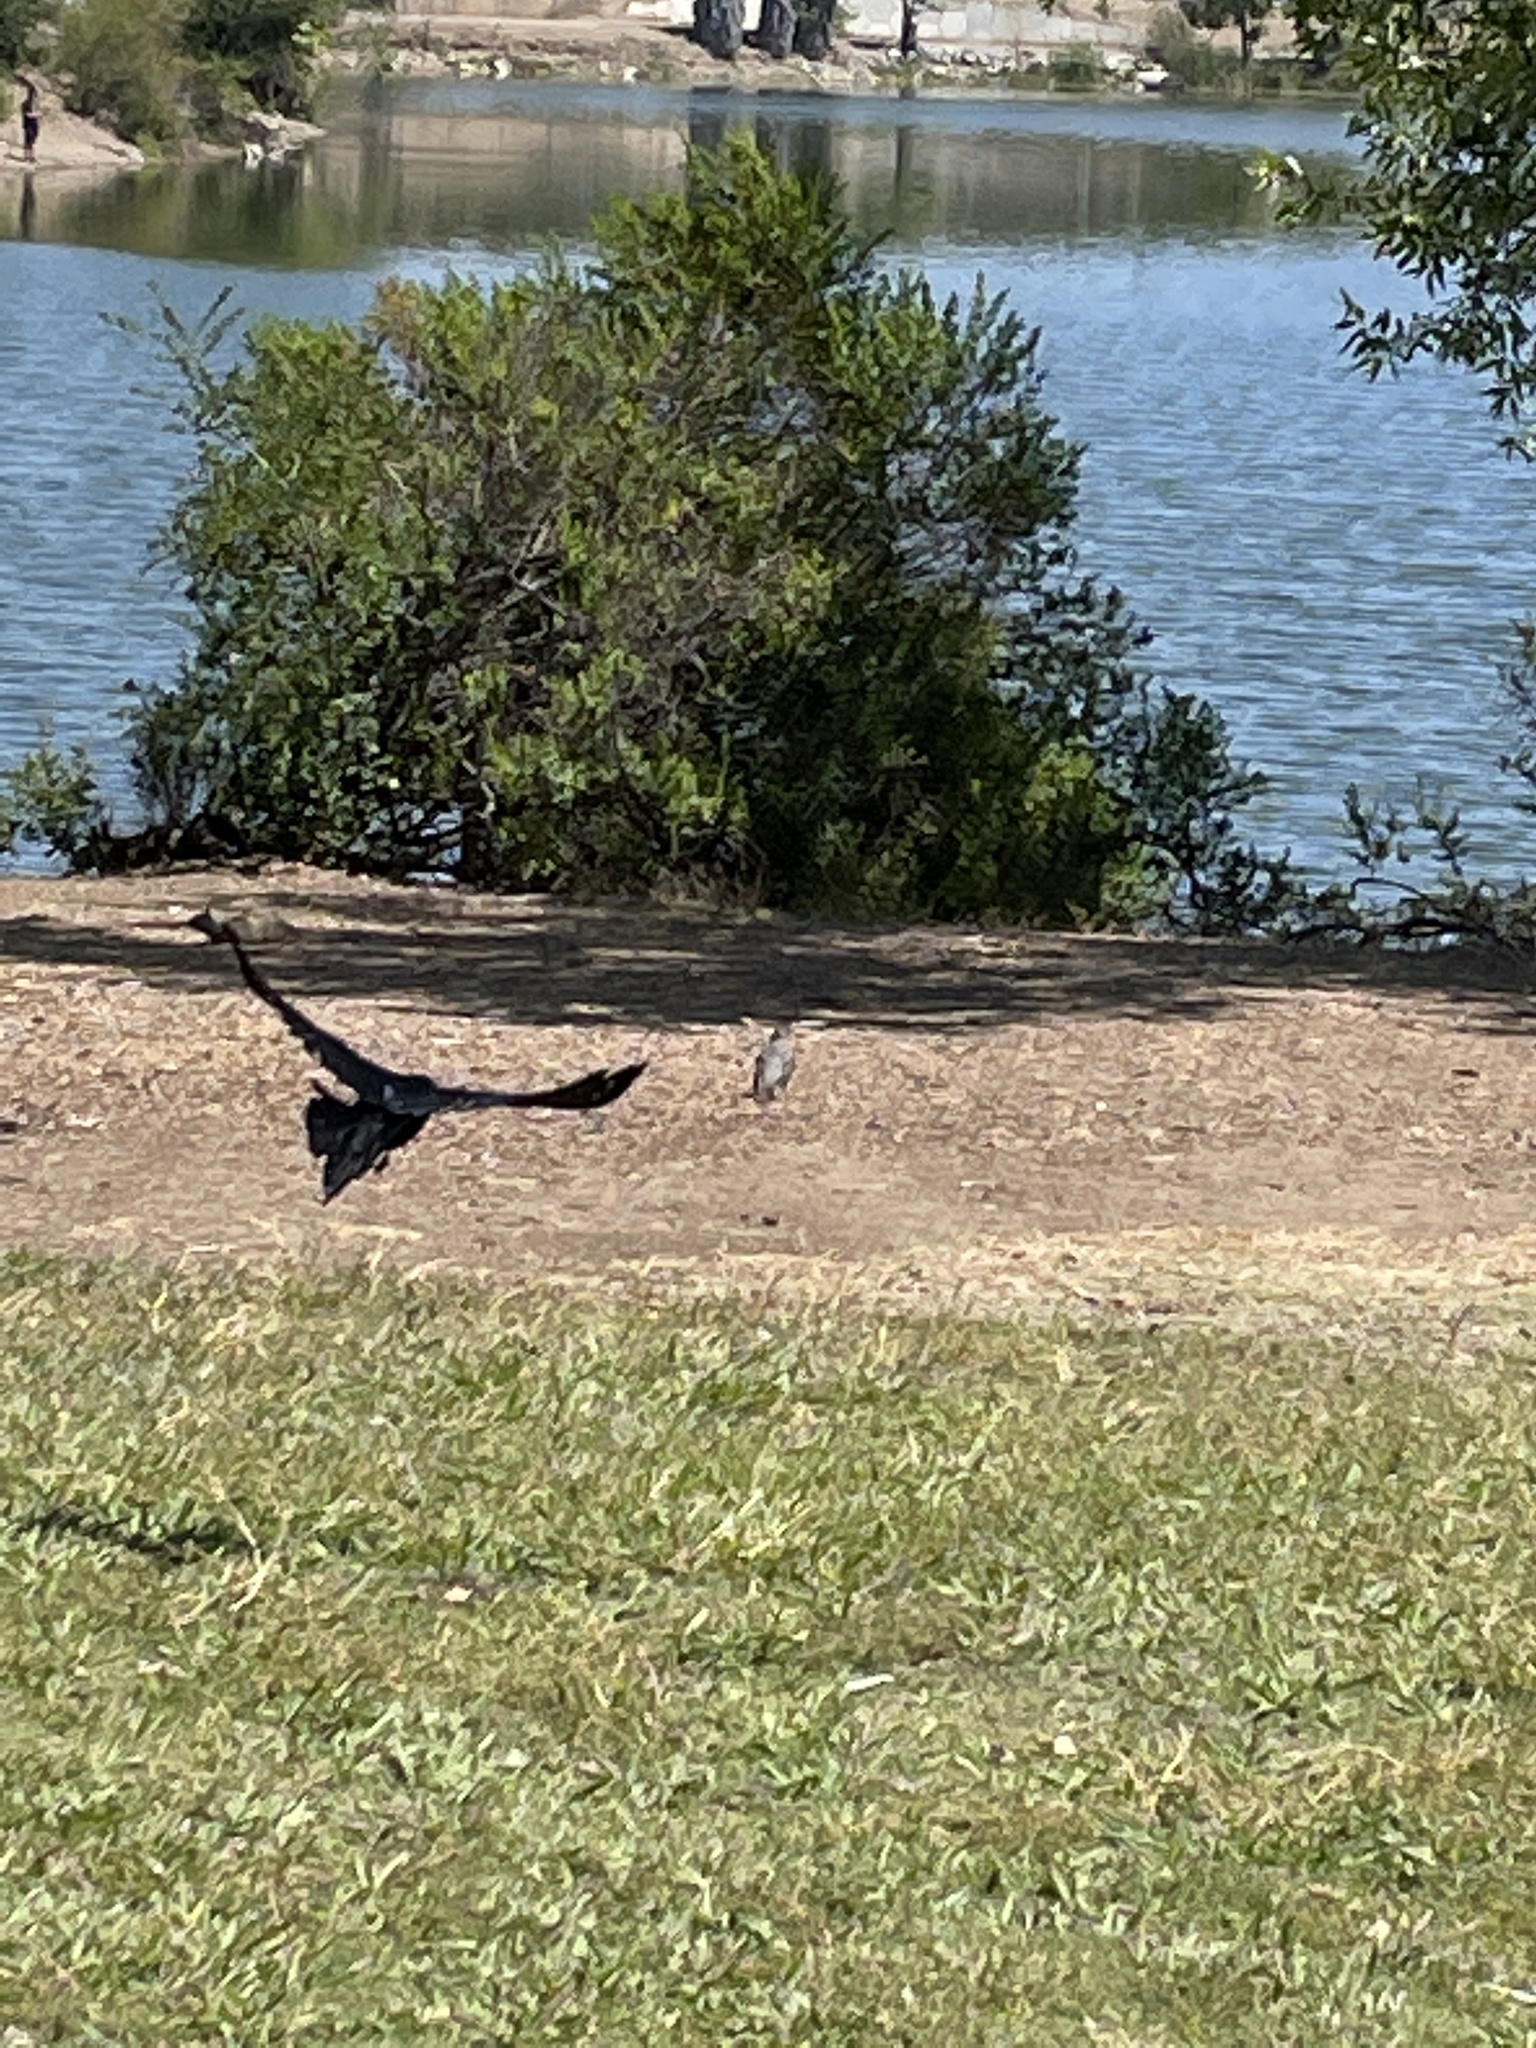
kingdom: Animalia
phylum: Chordata
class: Aves
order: Passeriformes
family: Icteridae
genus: Quiscalus
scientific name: Quiscalus mexicanus
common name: Great-tailed grackle
